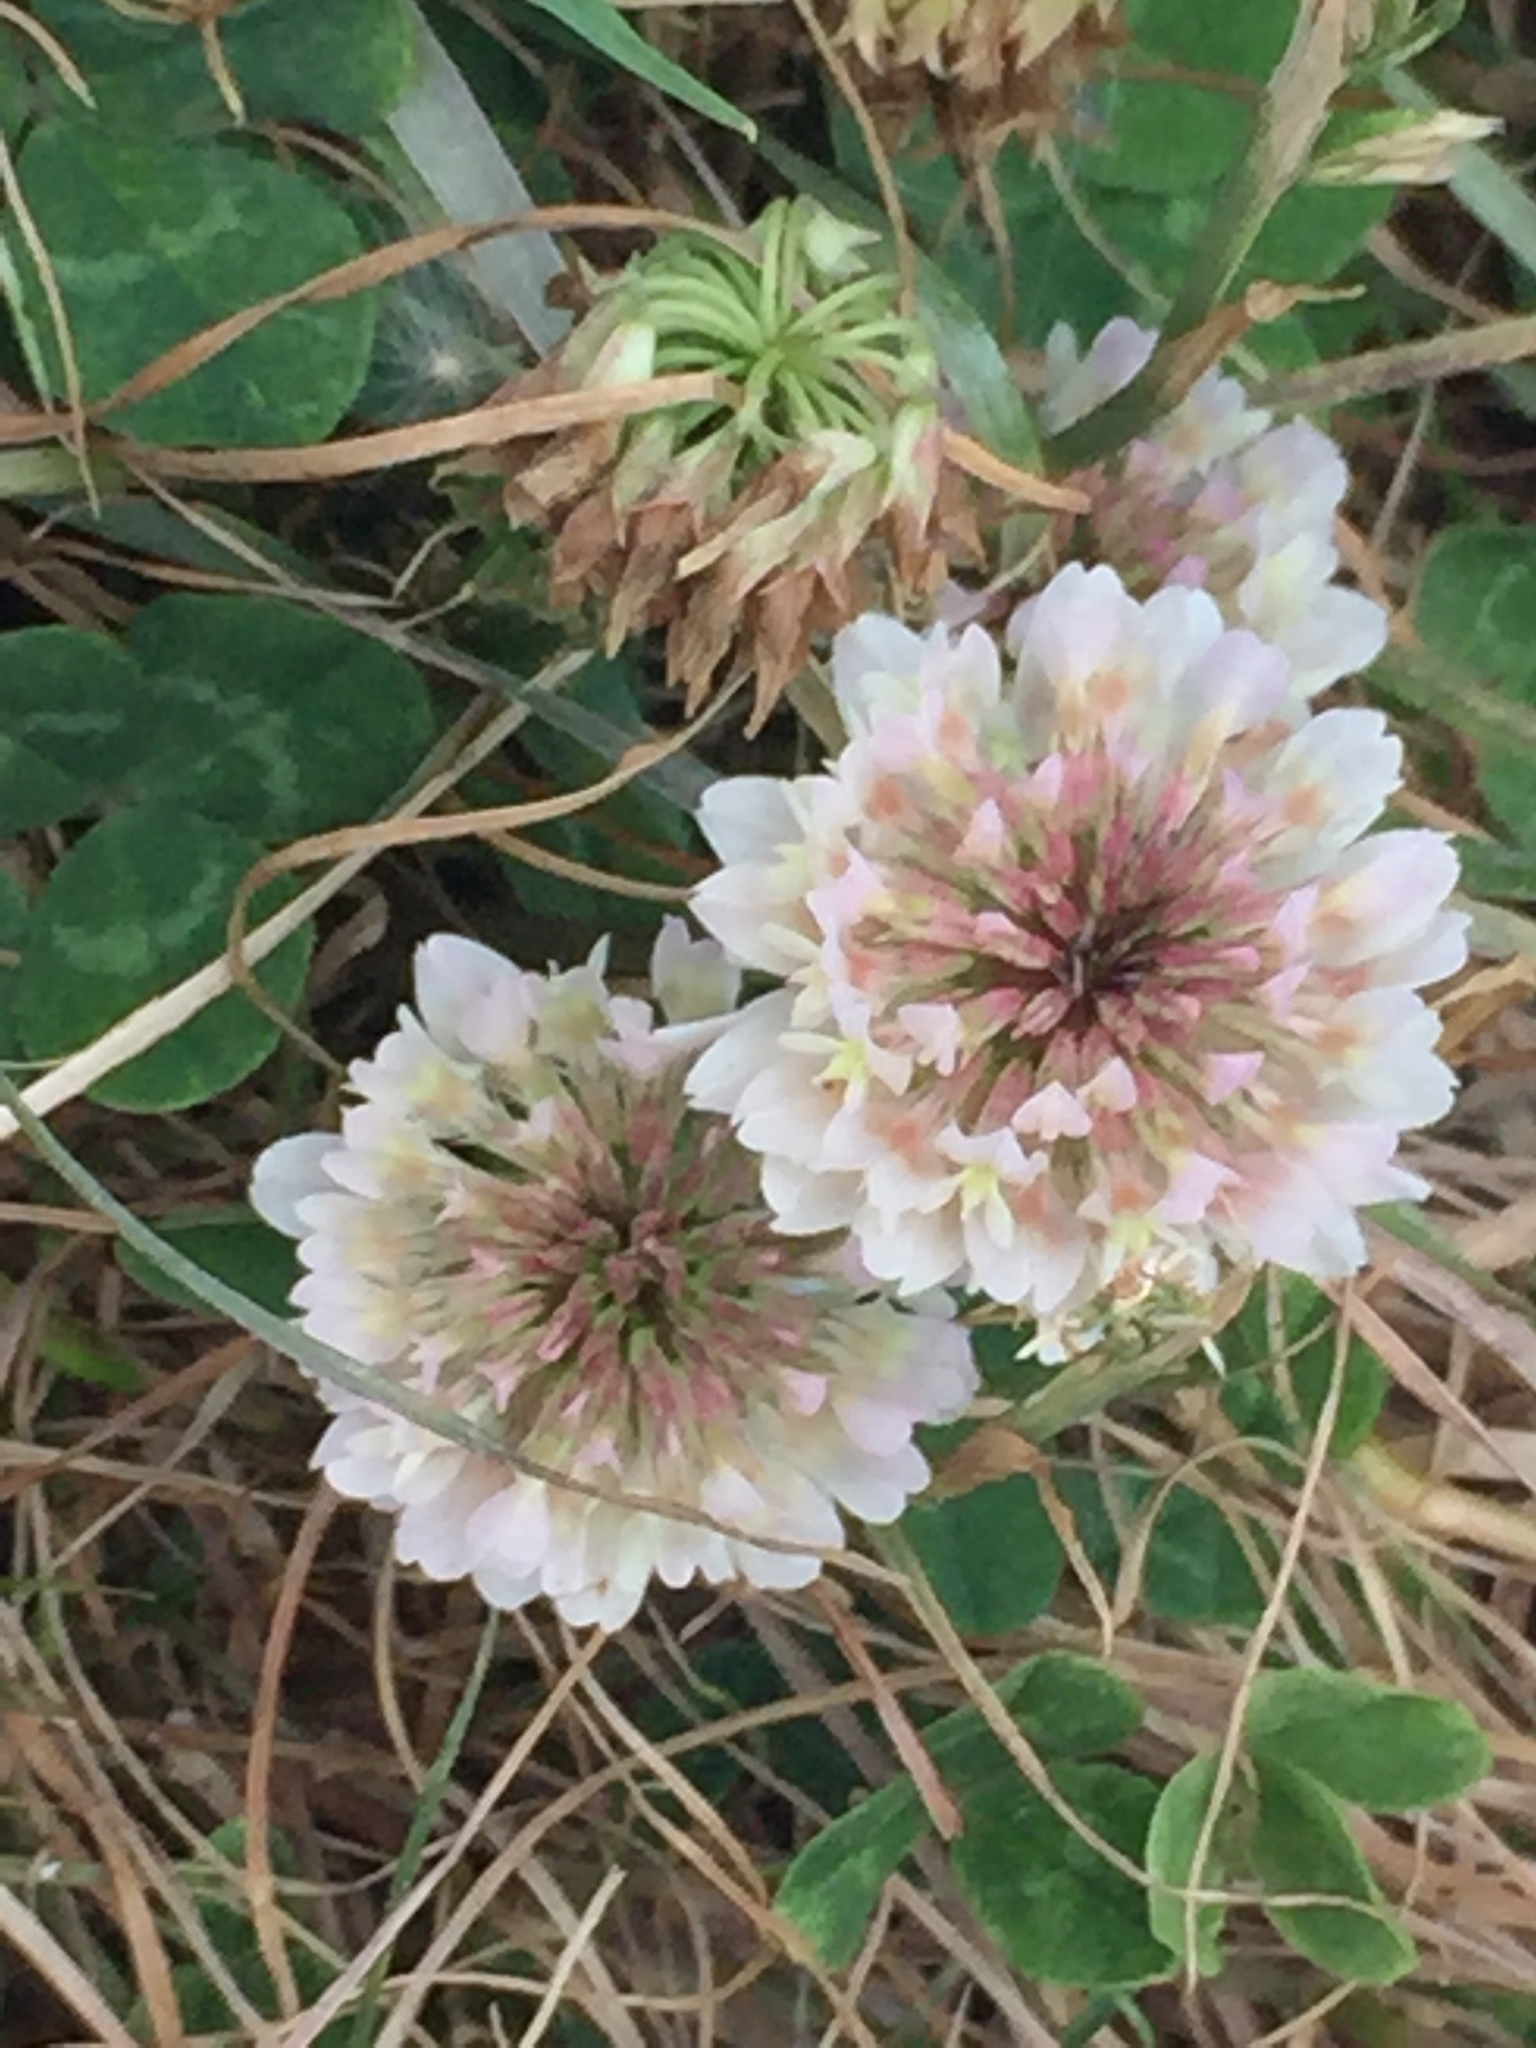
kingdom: Plantae
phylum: Tracheophyta
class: Magnoliopsida
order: Fabales
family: Fabaceae
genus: Trifolium
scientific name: Trifolium repens
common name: White clover
